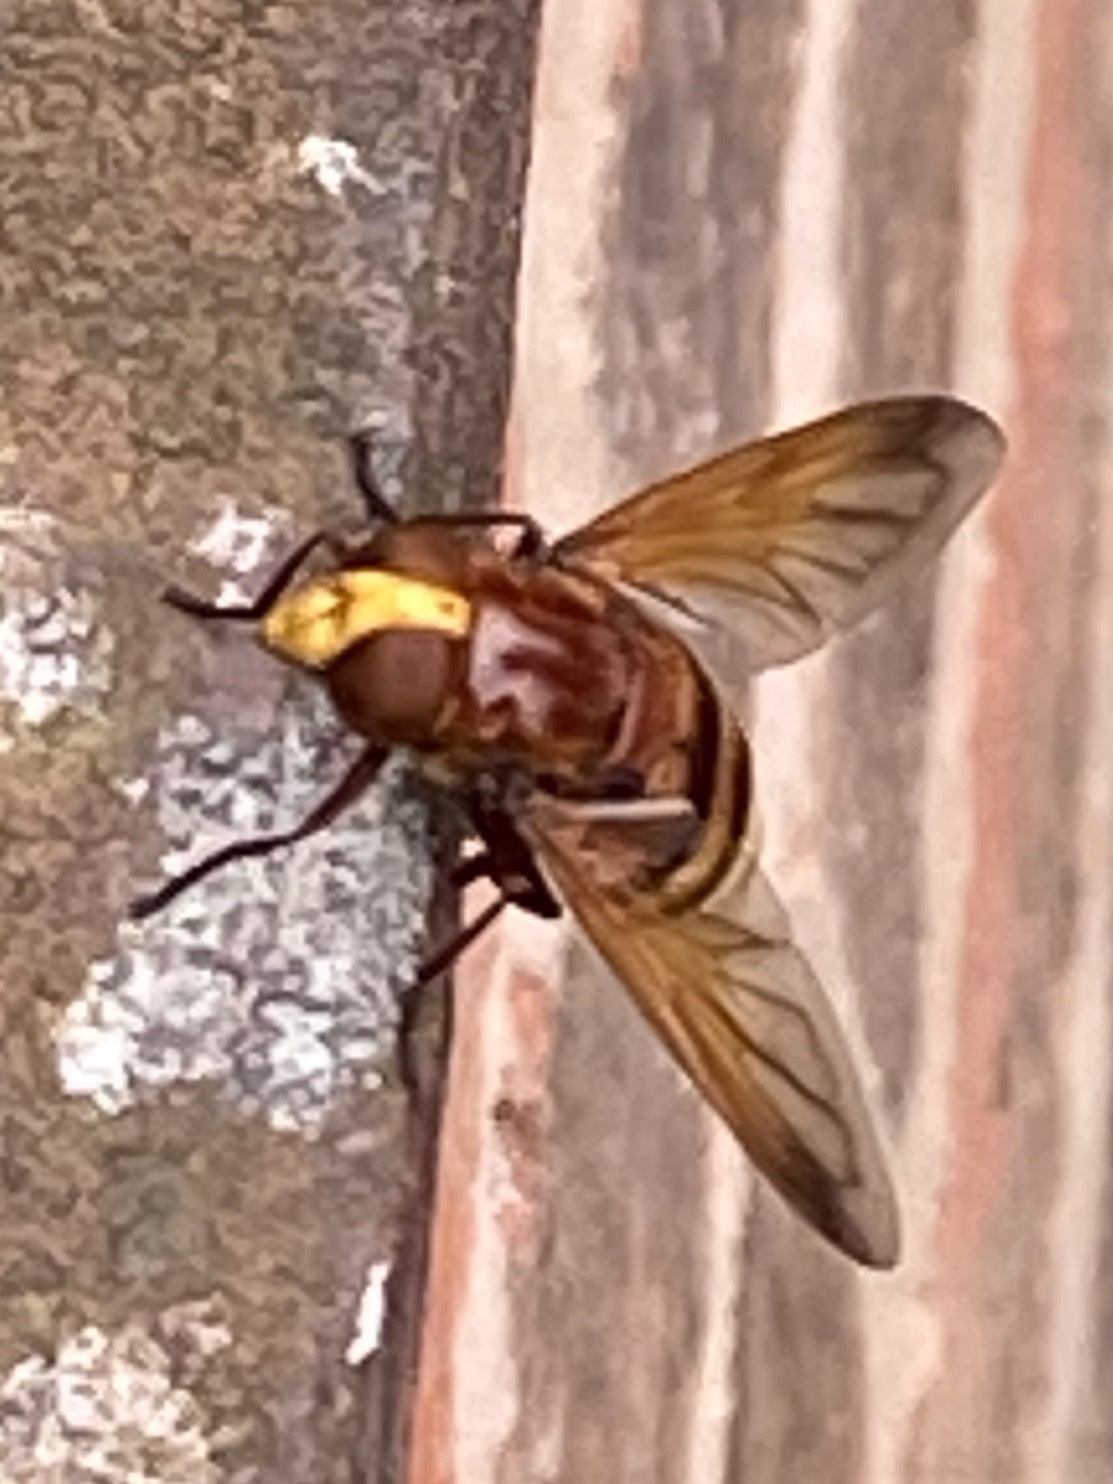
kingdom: Animalia
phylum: Arthropoda
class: Insecta
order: Diptera
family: Syrphidae
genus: Volucella
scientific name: Volucella zonaria
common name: Hornet hoverfly
